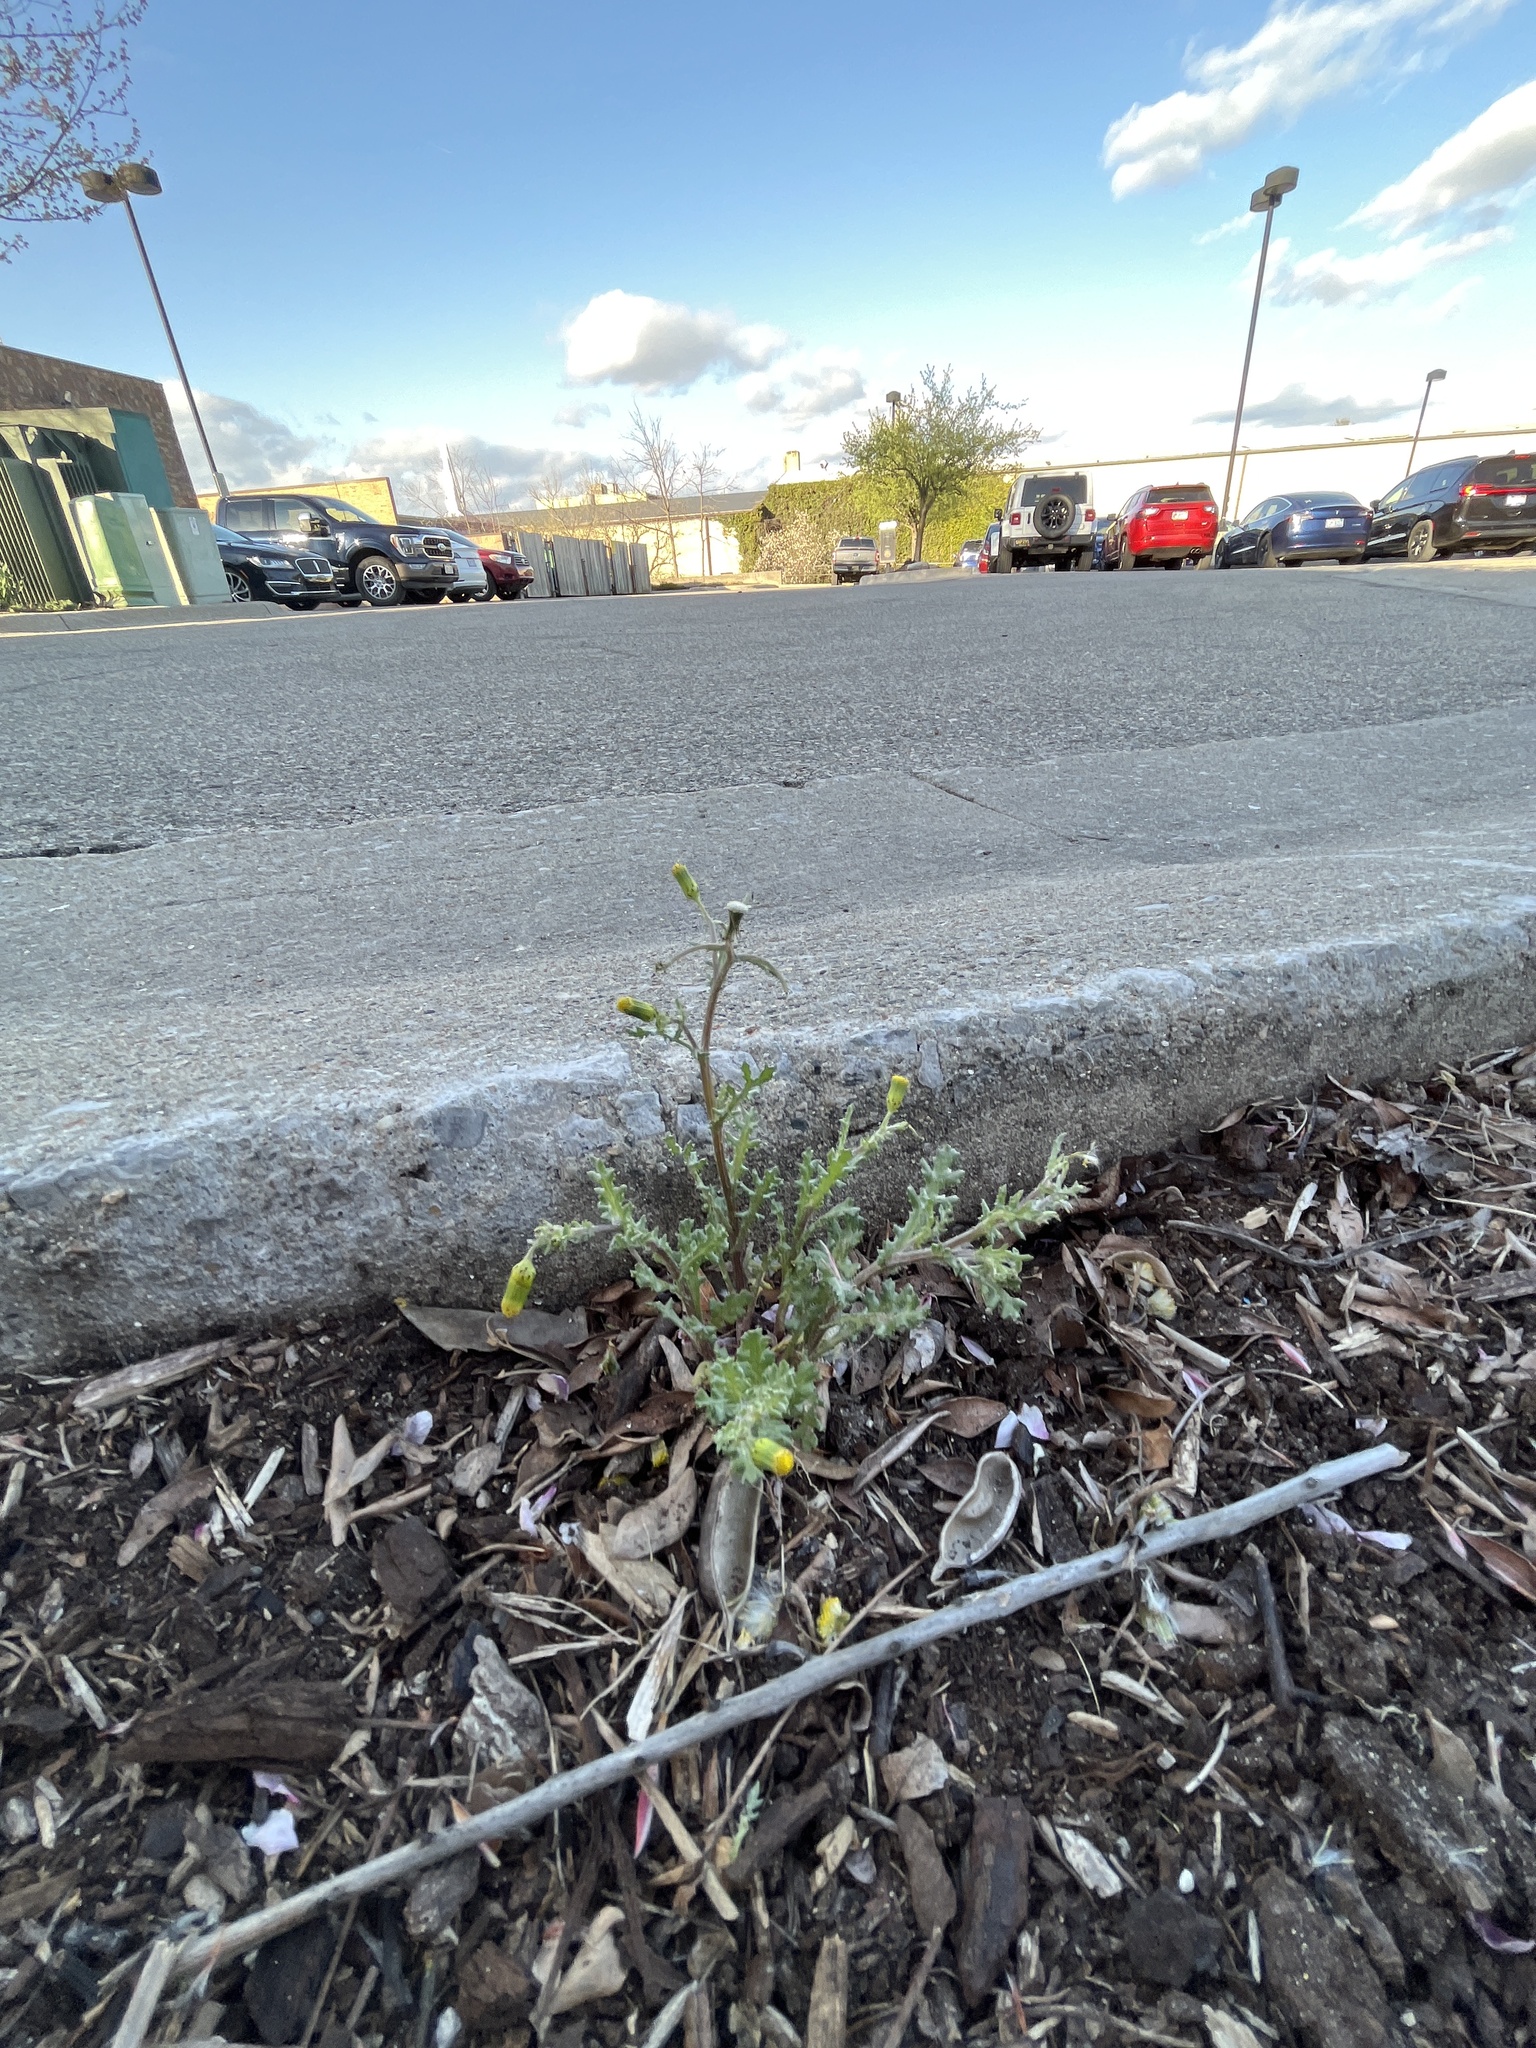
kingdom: Plantae
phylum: Tracheophyta
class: Magnoliopsida
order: Asterales
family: Asteraceae
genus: Senecio
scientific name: Senecio vulgaris
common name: Old-man-in-the-spring
